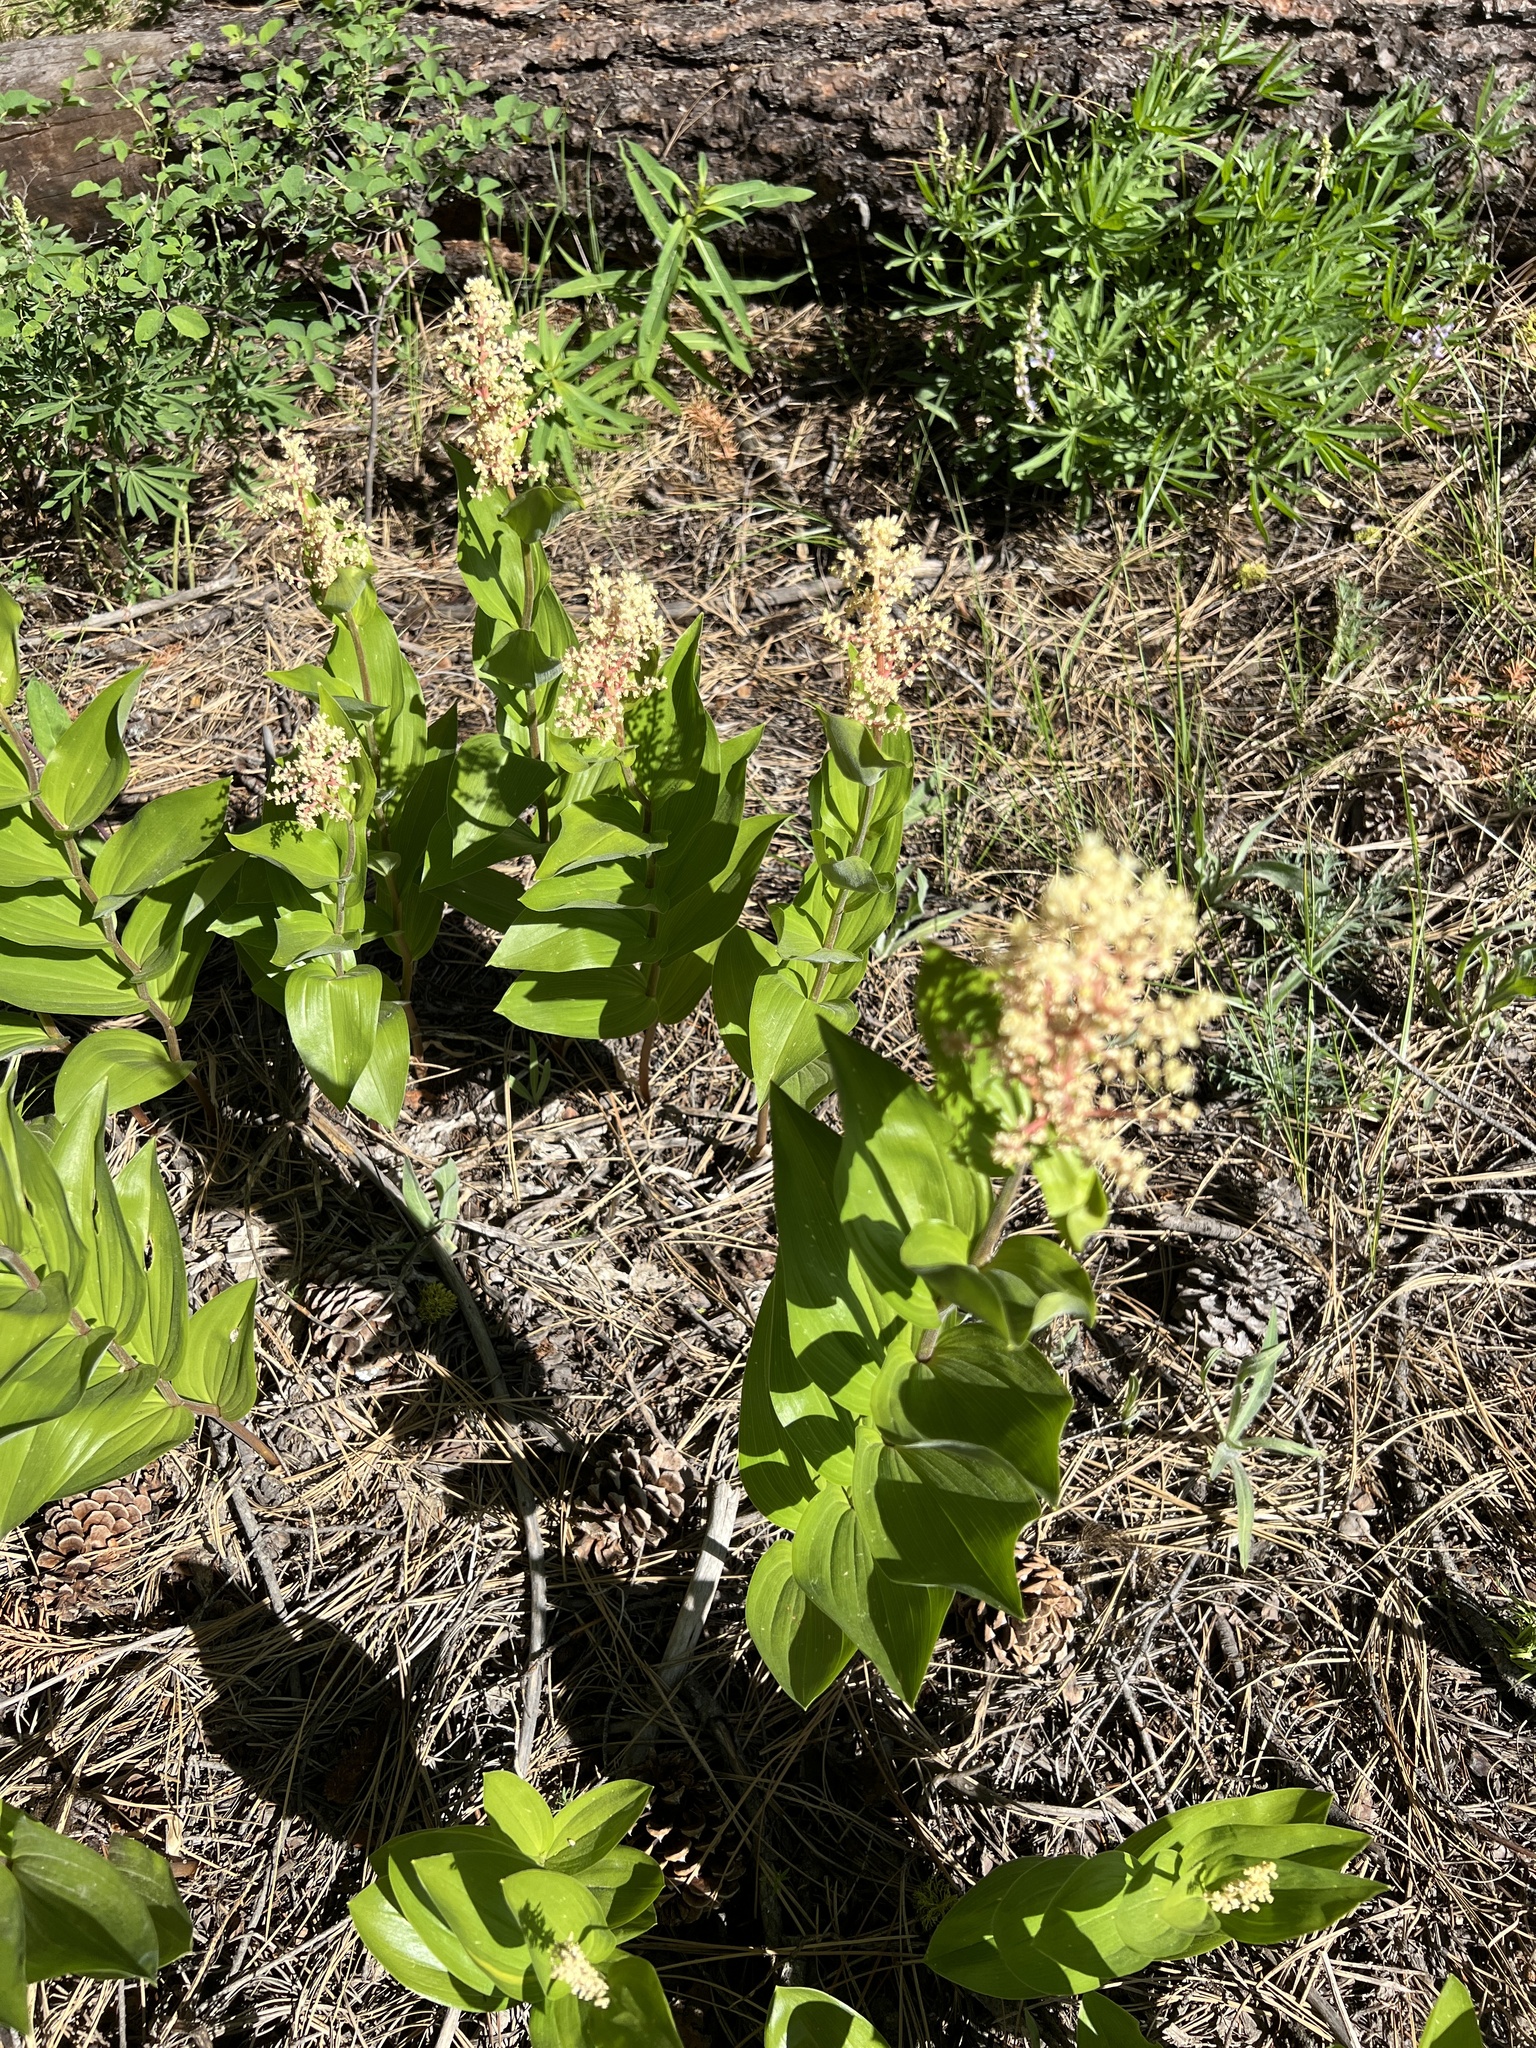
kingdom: Plantae
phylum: Tracheophyta
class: Liliopsida
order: Asparagales
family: Asparagaceae
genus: Maianthemum
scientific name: Maianthemum racemosum
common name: False spikenard
